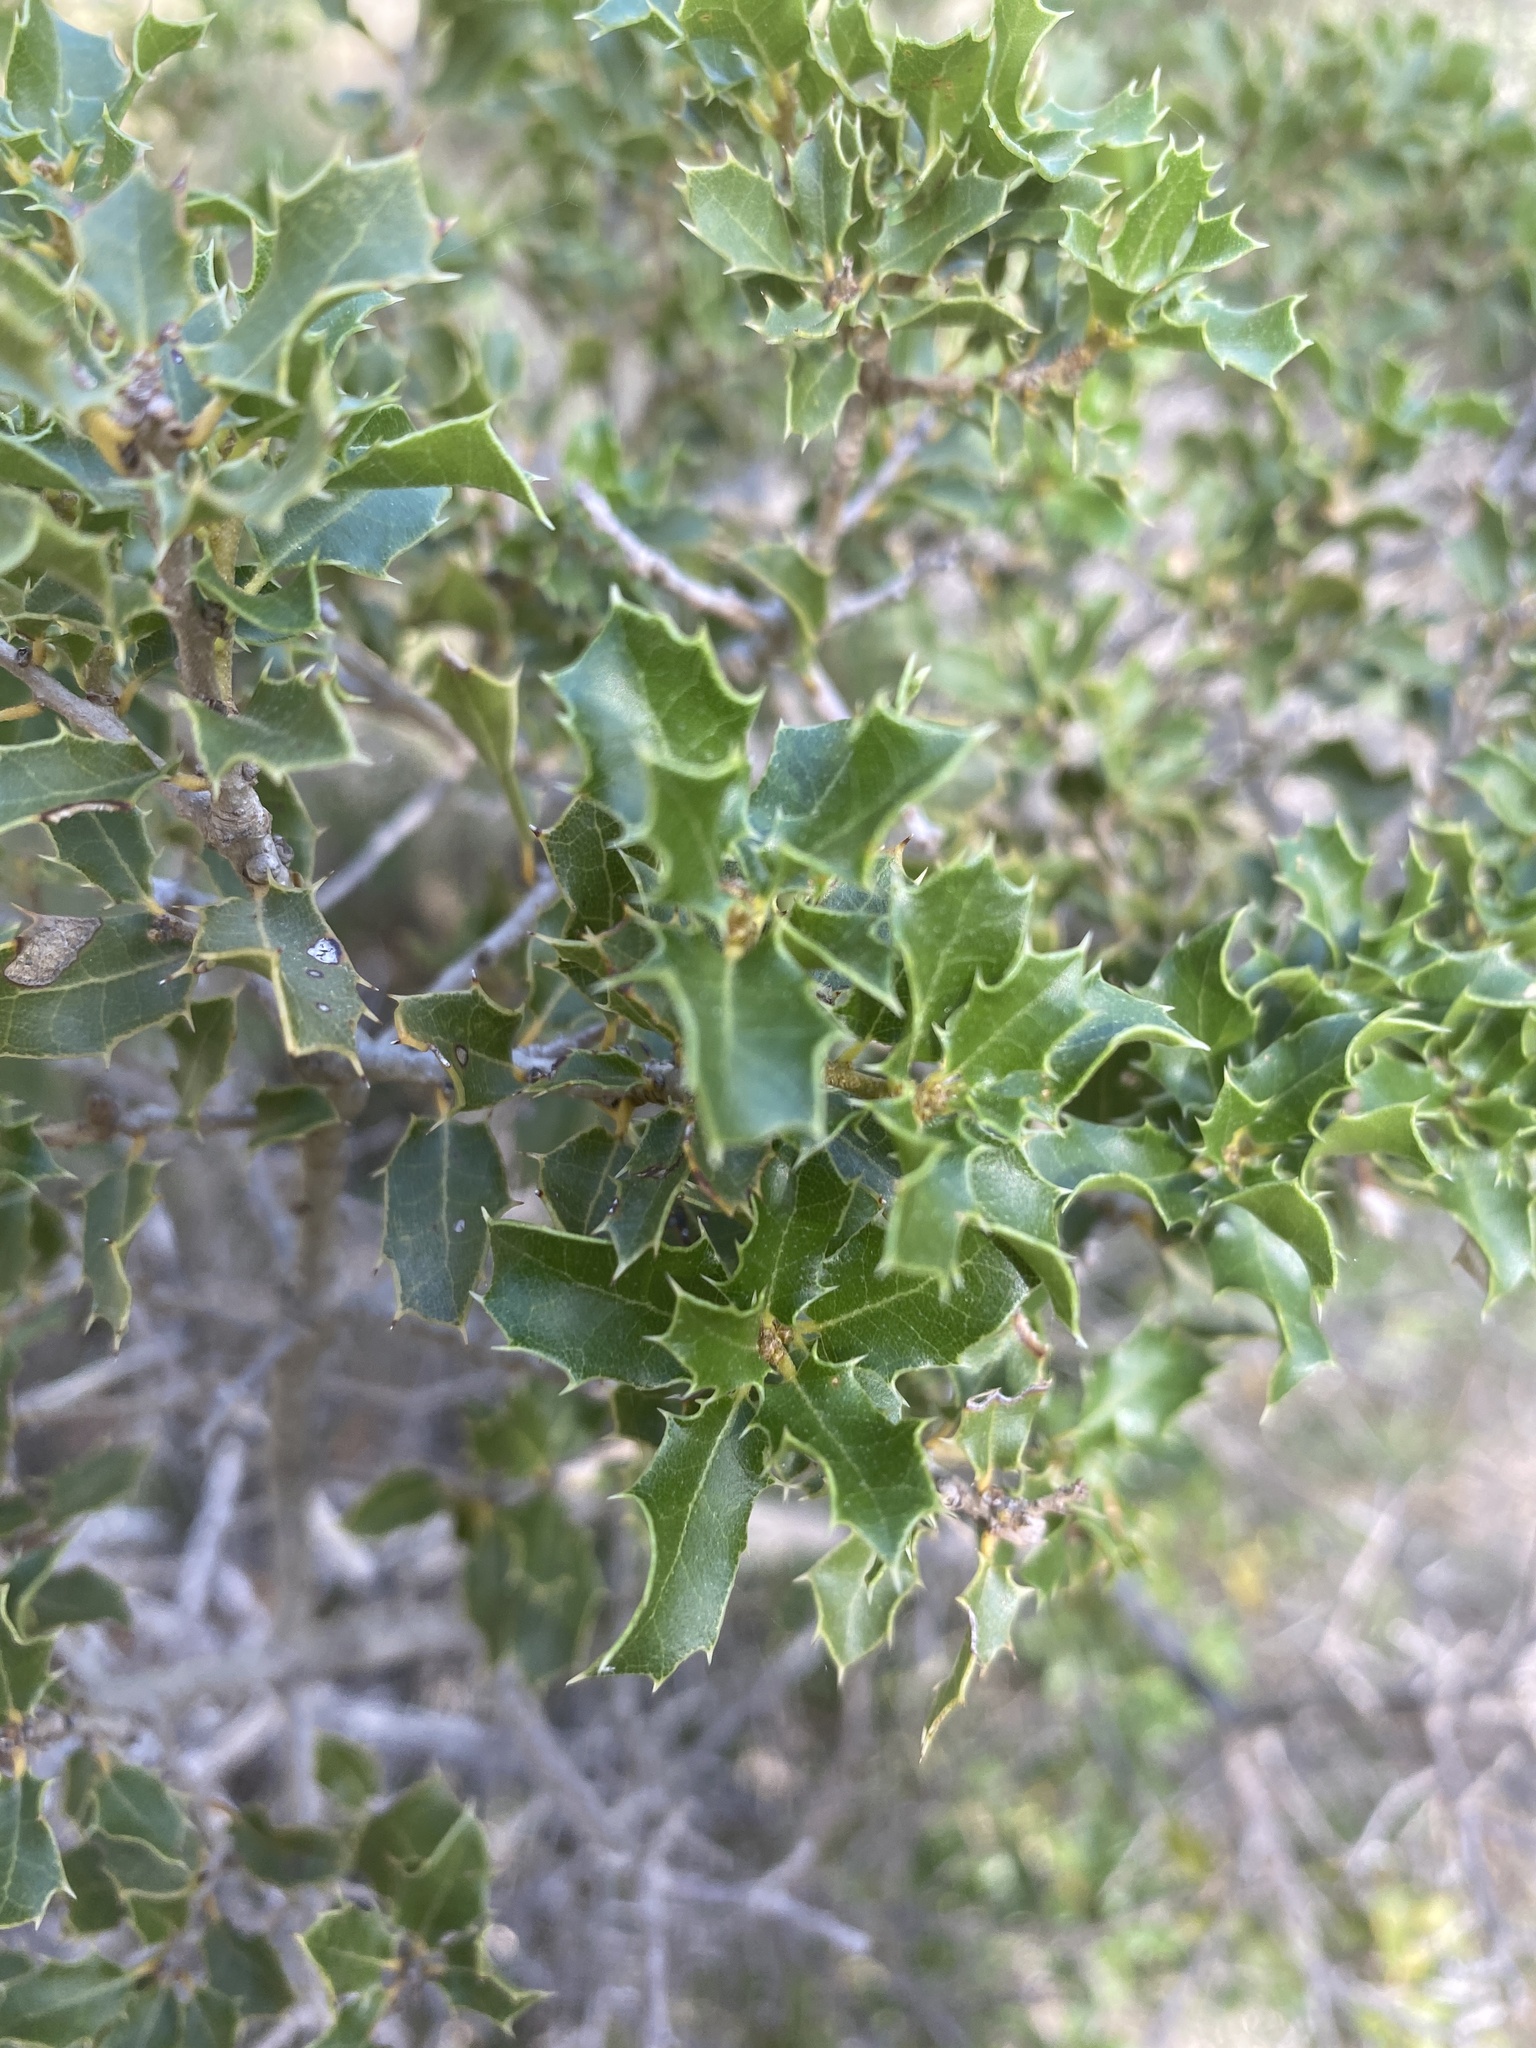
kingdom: Plantae
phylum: Tracheophyta
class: Magnoliopsida
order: Fagales
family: Fagaceae
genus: Quercus
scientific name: Quercus coccifera
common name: Kermes oak
